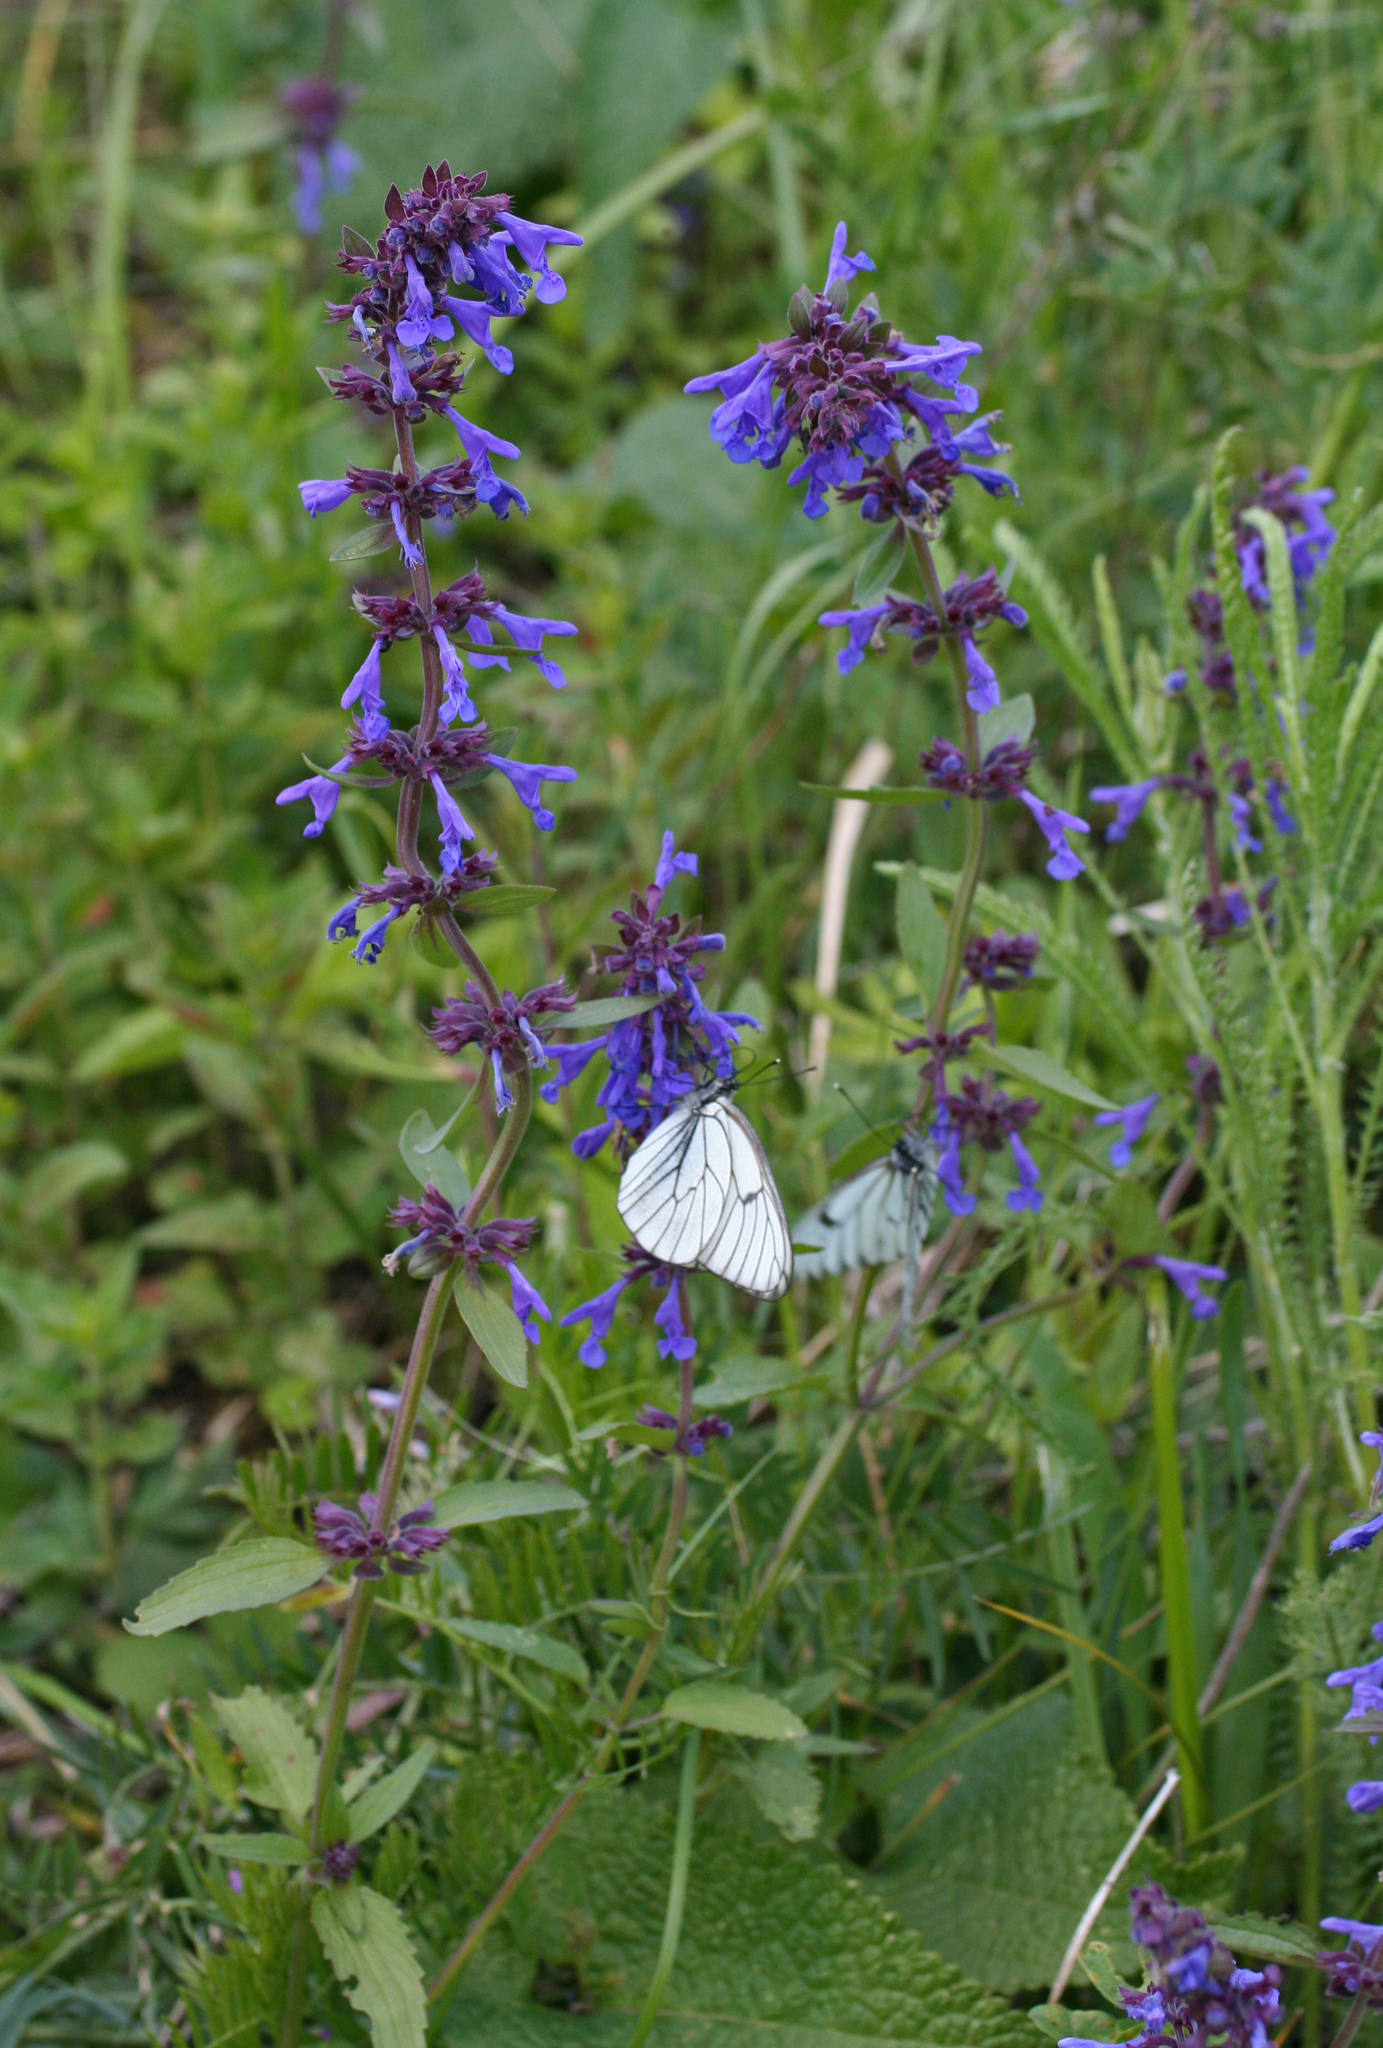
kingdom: Plantae
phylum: Tracheophyta
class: Magnoliopsida
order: Lamiales
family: Lamiaceae
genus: Dracocephalum
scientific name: Dracocephalum nutans
